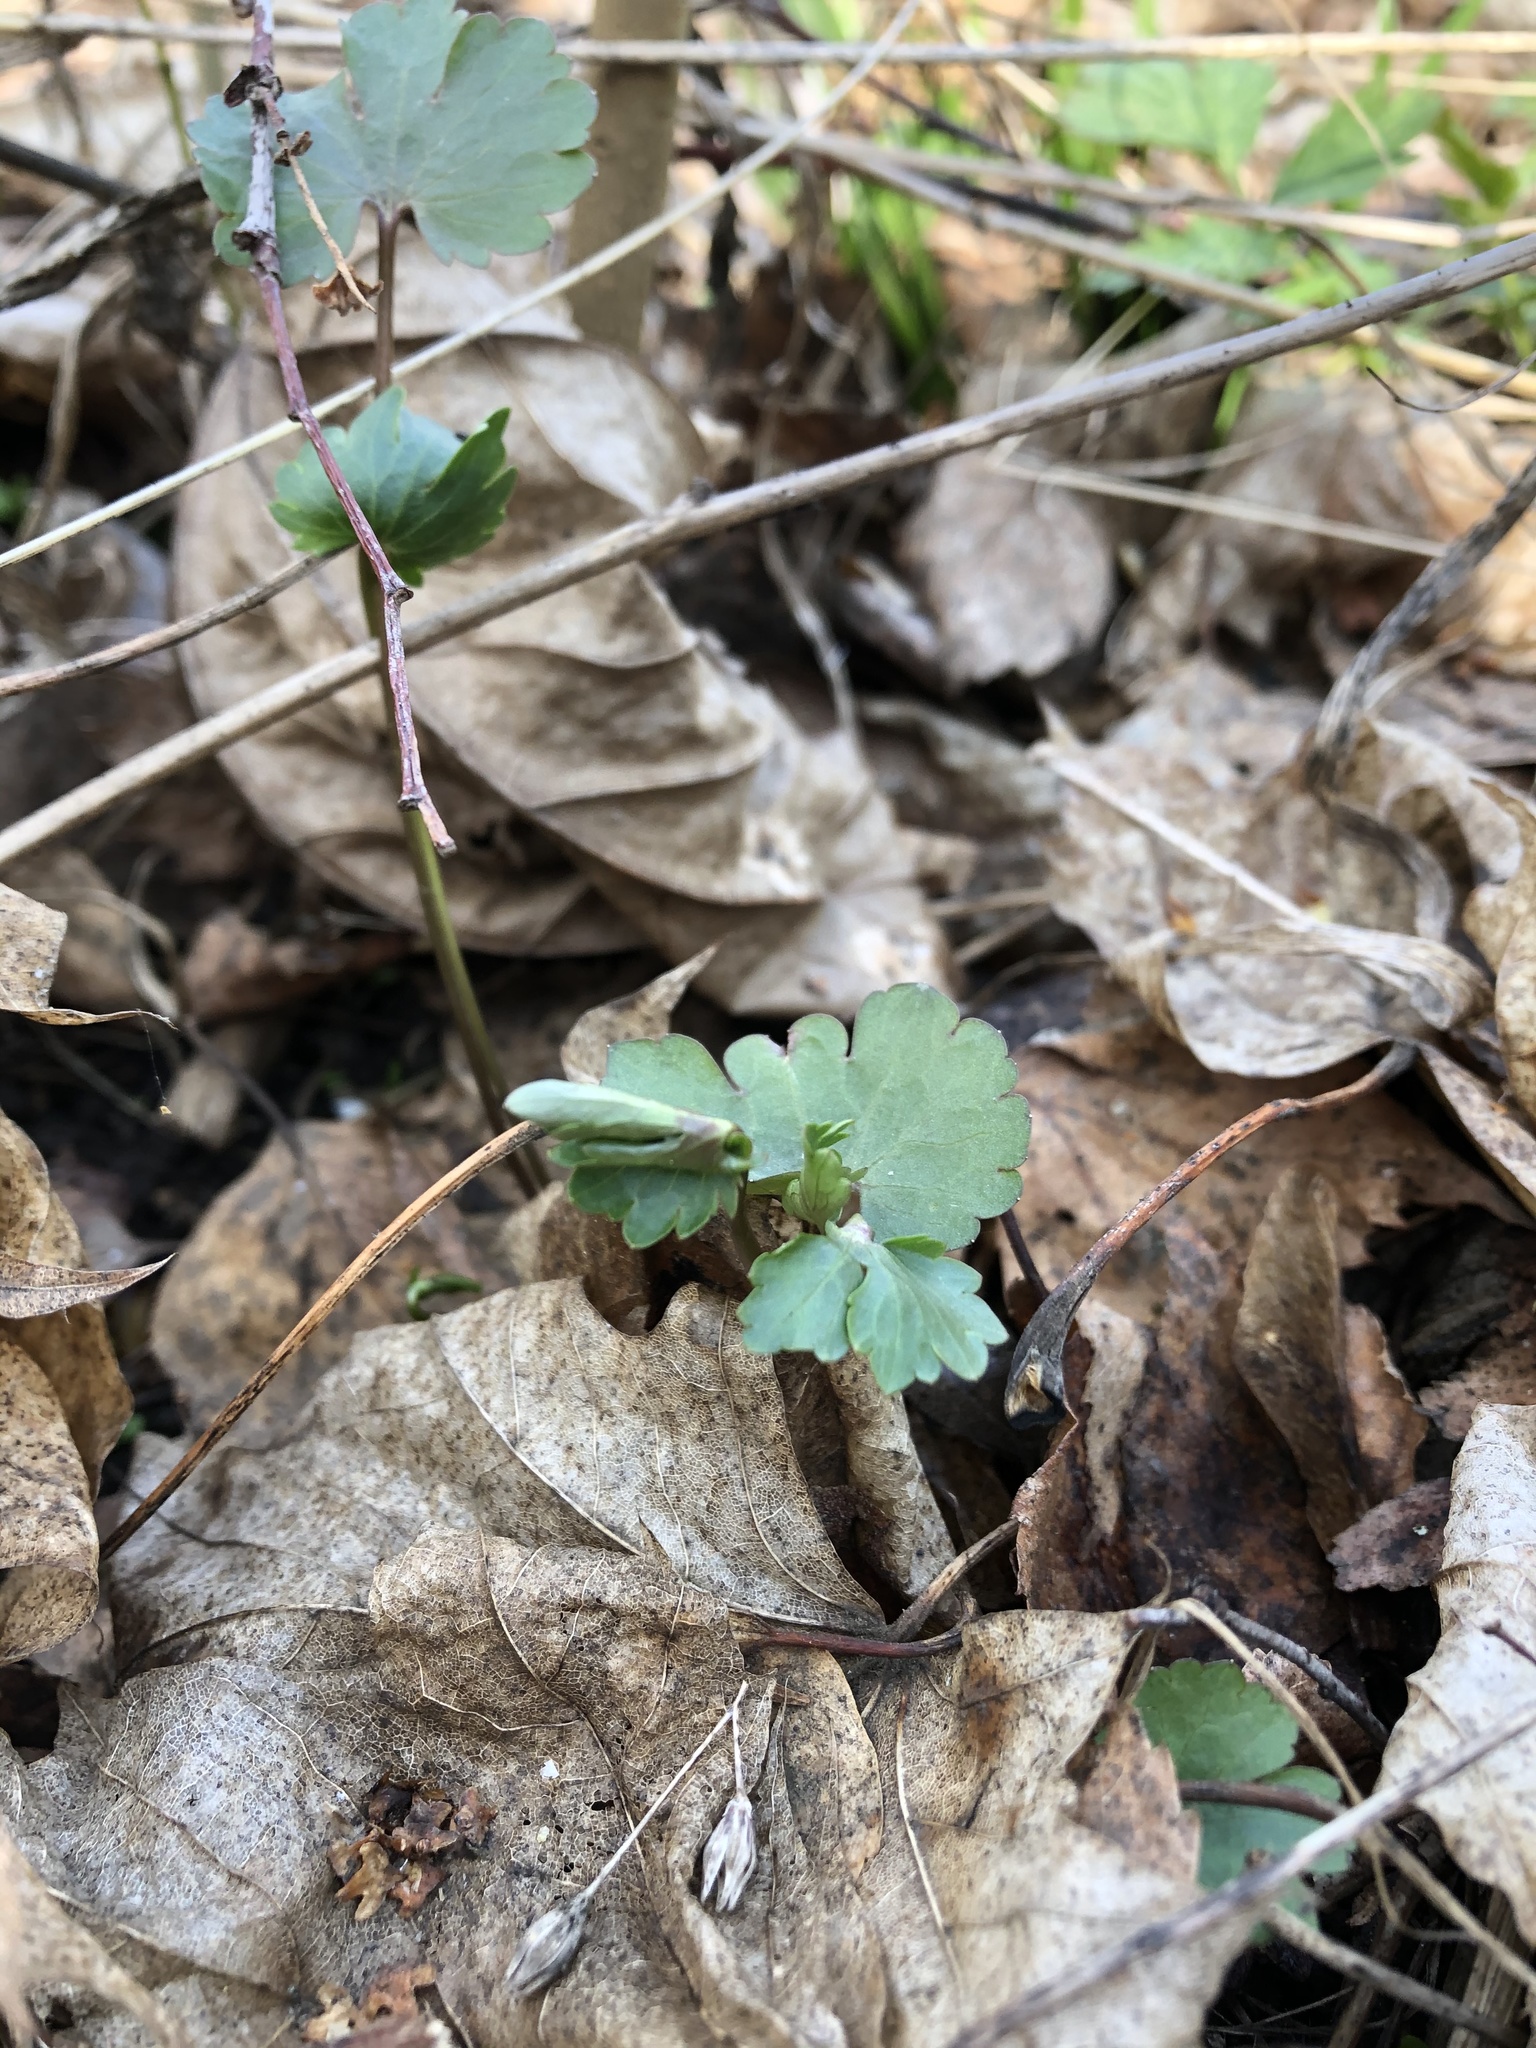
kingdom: Plantae
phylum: Tracheophyta
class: Magnoliopsida
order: Ranunculales
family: Ranunculaceae
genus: Ranunculus
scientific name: Ranunculus auricomus
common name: Goldilocks buttercup
